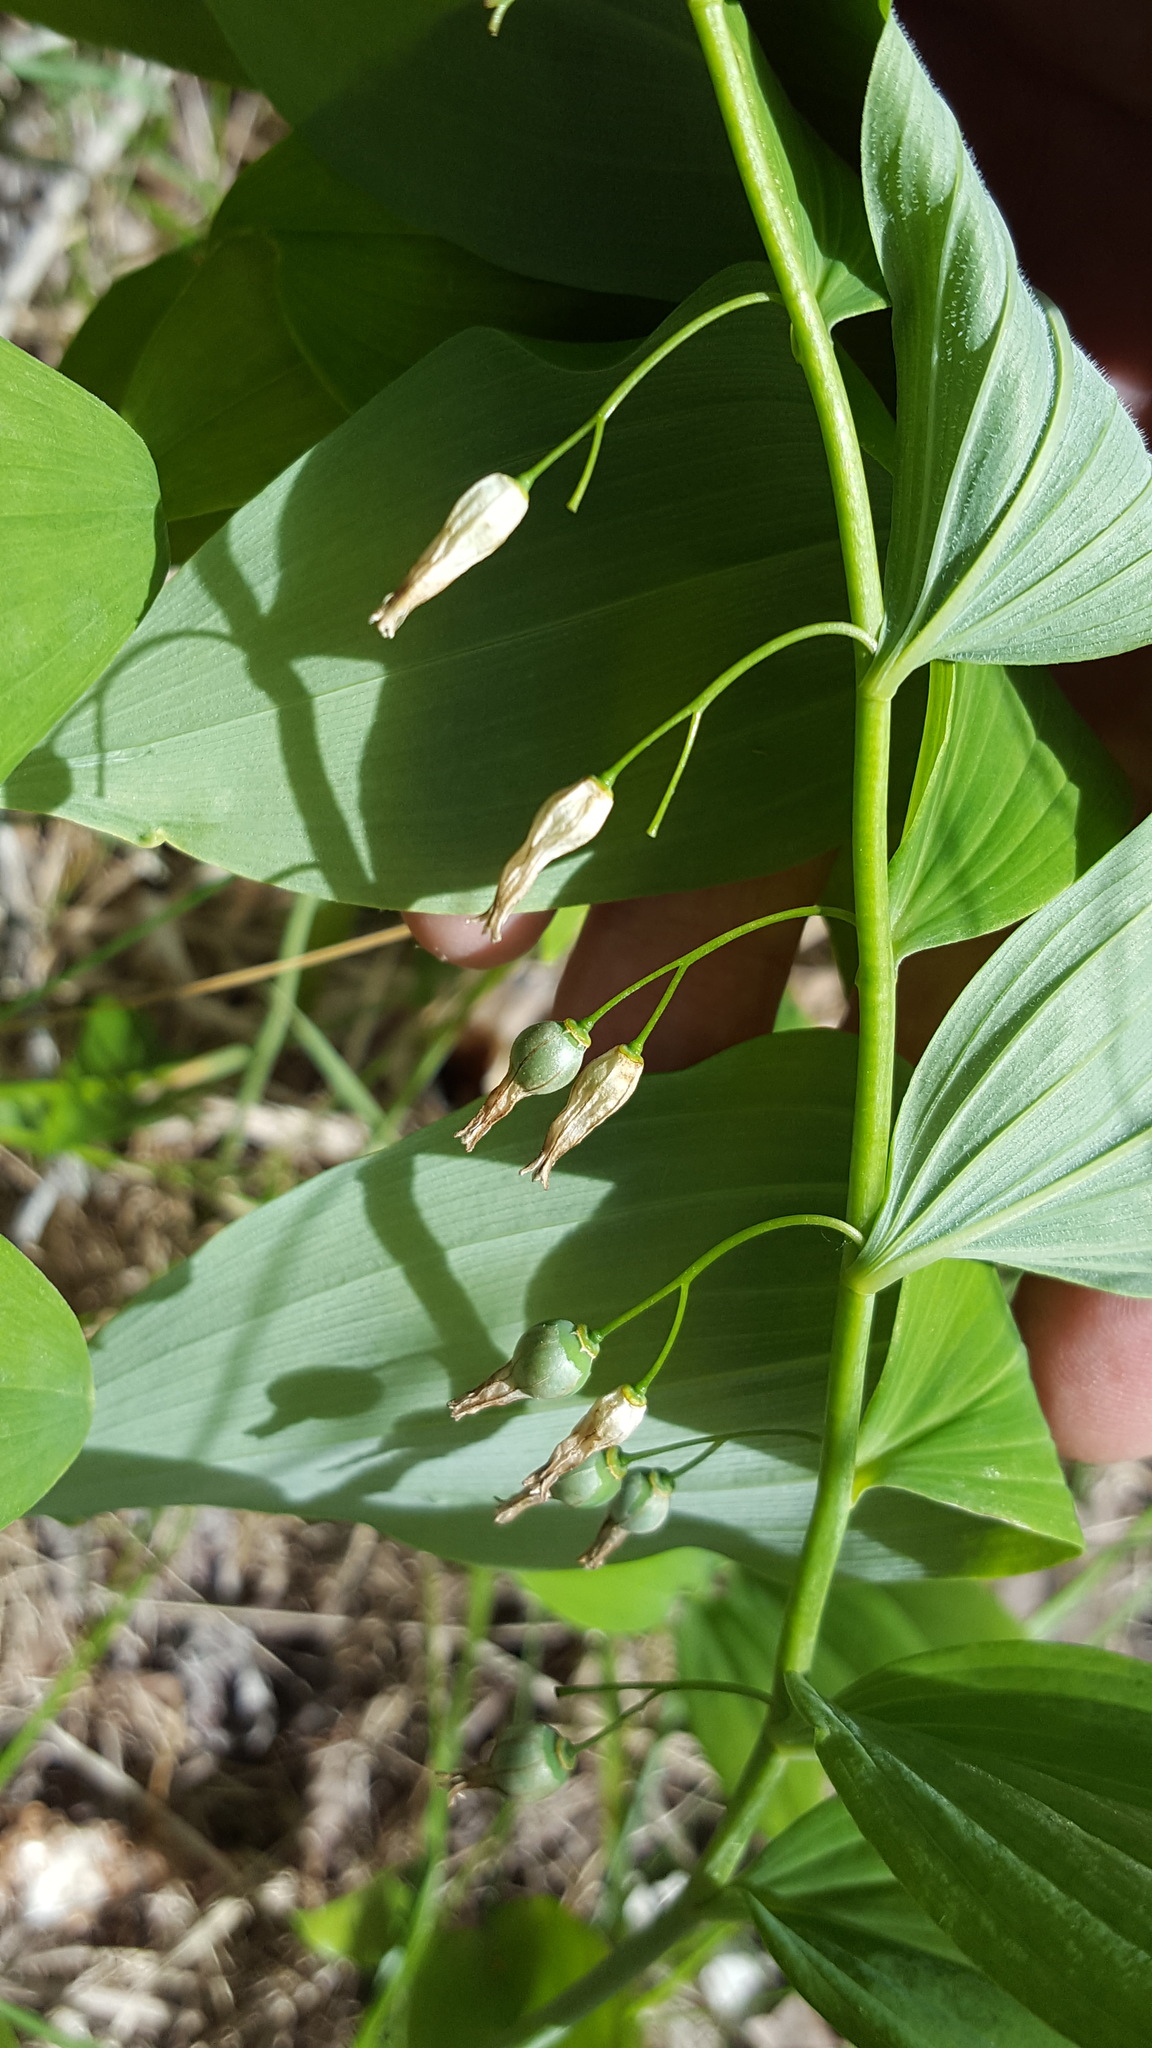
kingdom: Plantae
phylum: Tracheophyta
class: Liliopsida
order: Asparagales
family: Asparagaceae
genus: Polygonatum
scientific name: Polygonatum pubescens
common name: Downy solomon's seal
